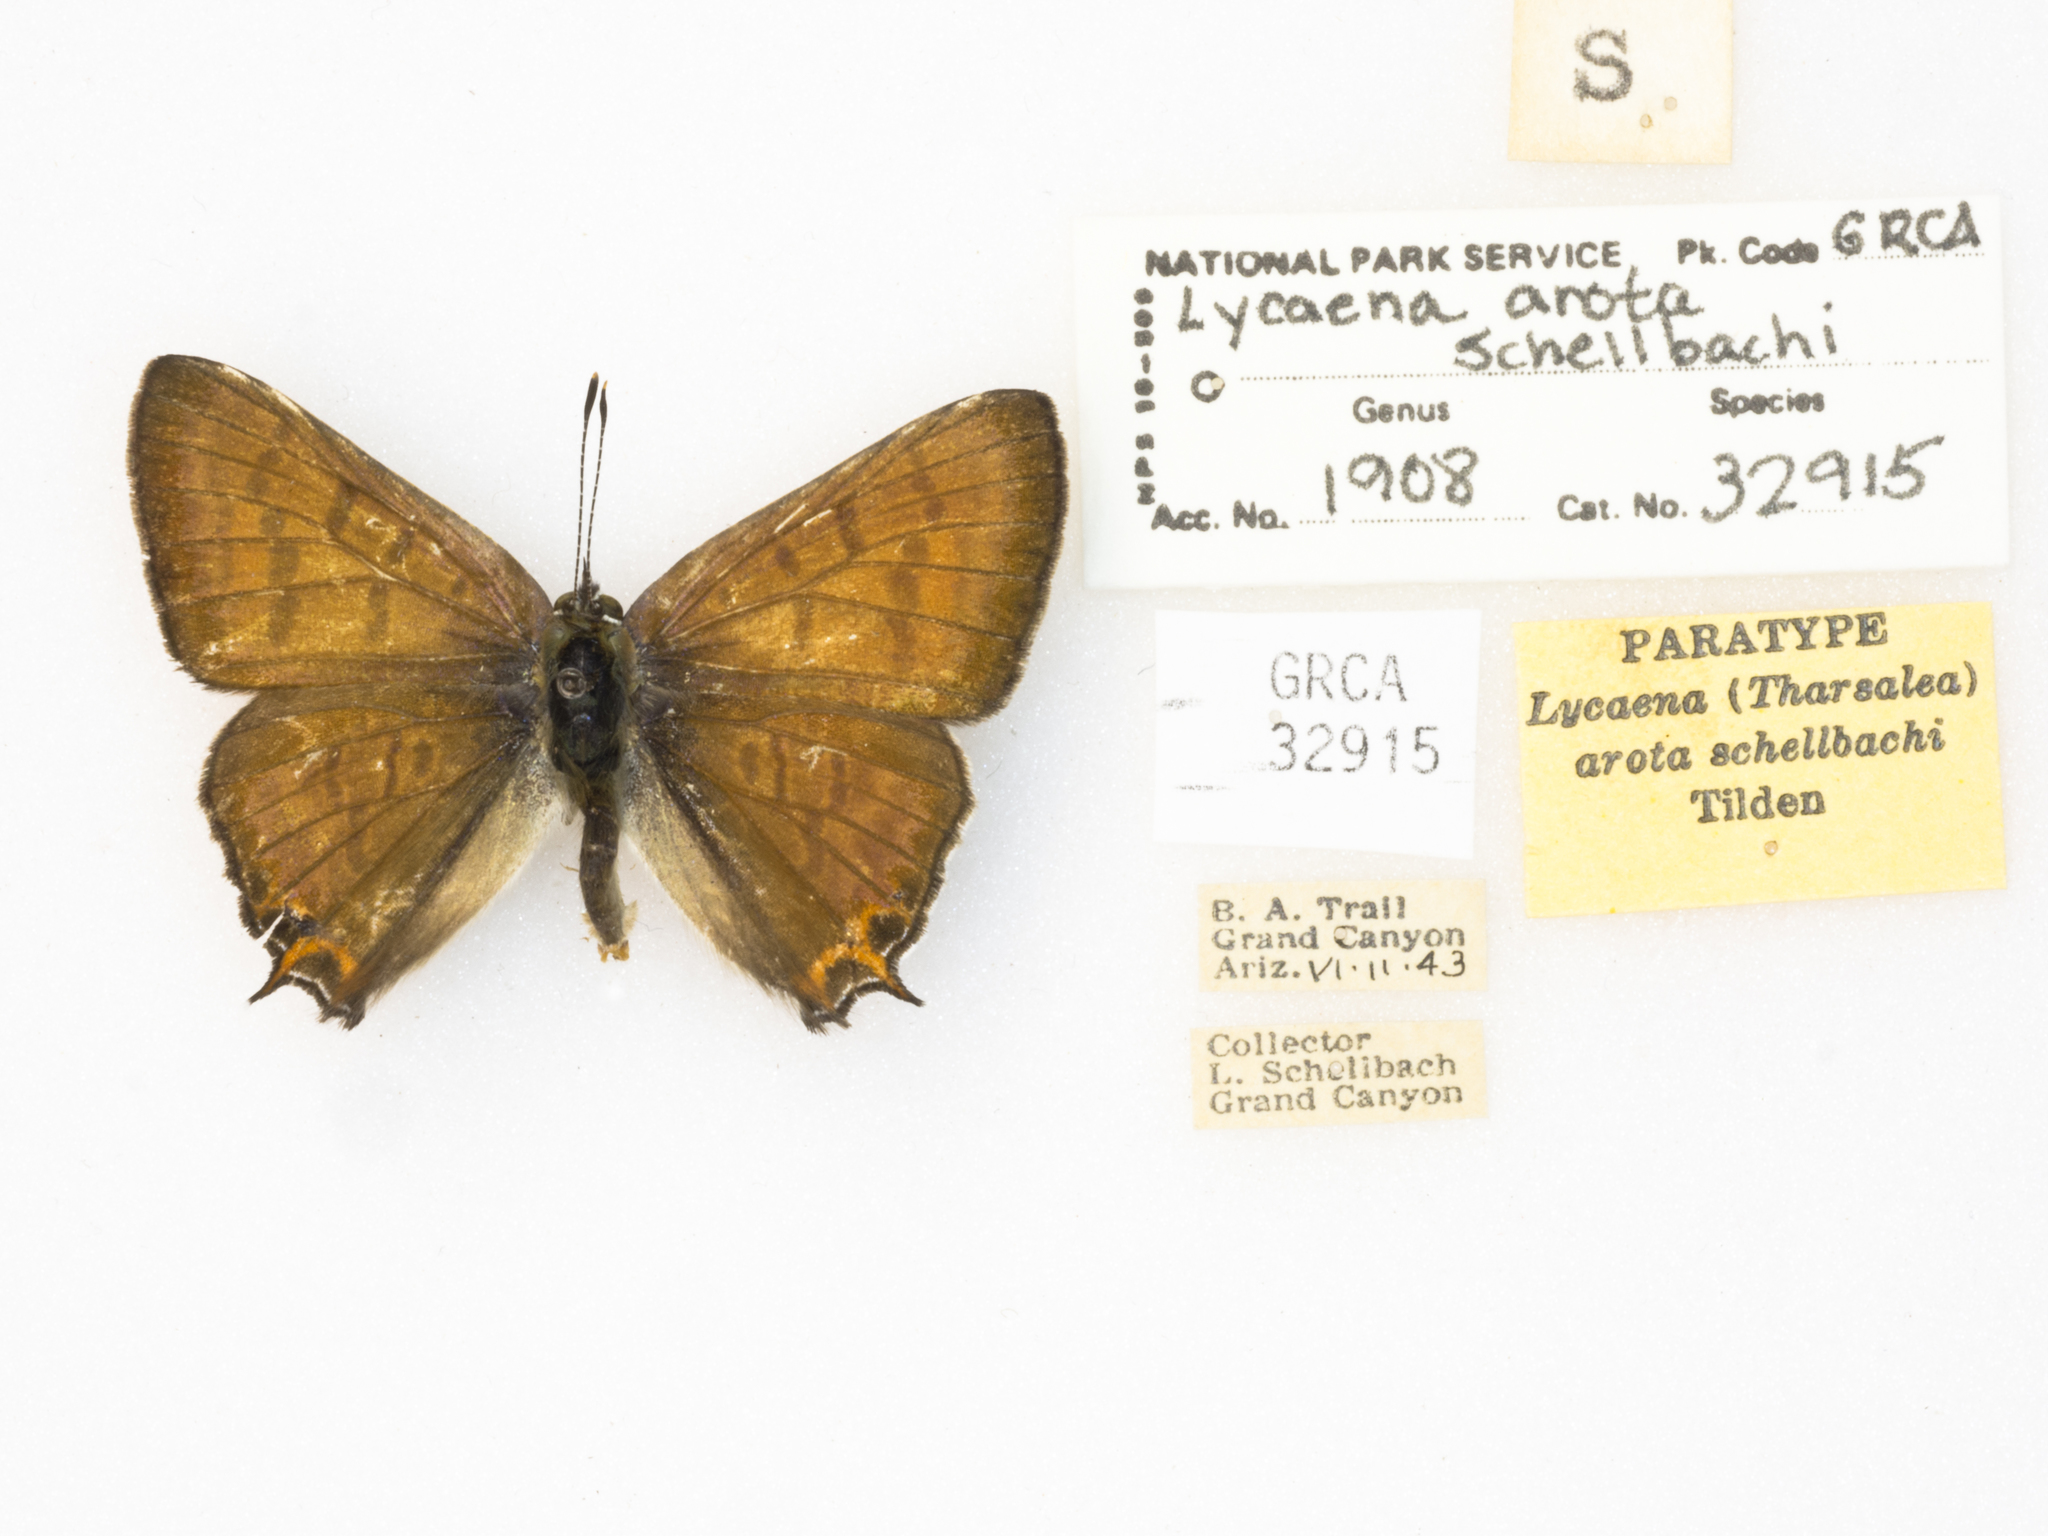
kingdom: Animalia
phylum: Arthropoda
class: Insecta
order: Lepidoptera
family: Lycaenidae
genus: Tharsalea
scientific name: Tharsalea arota
